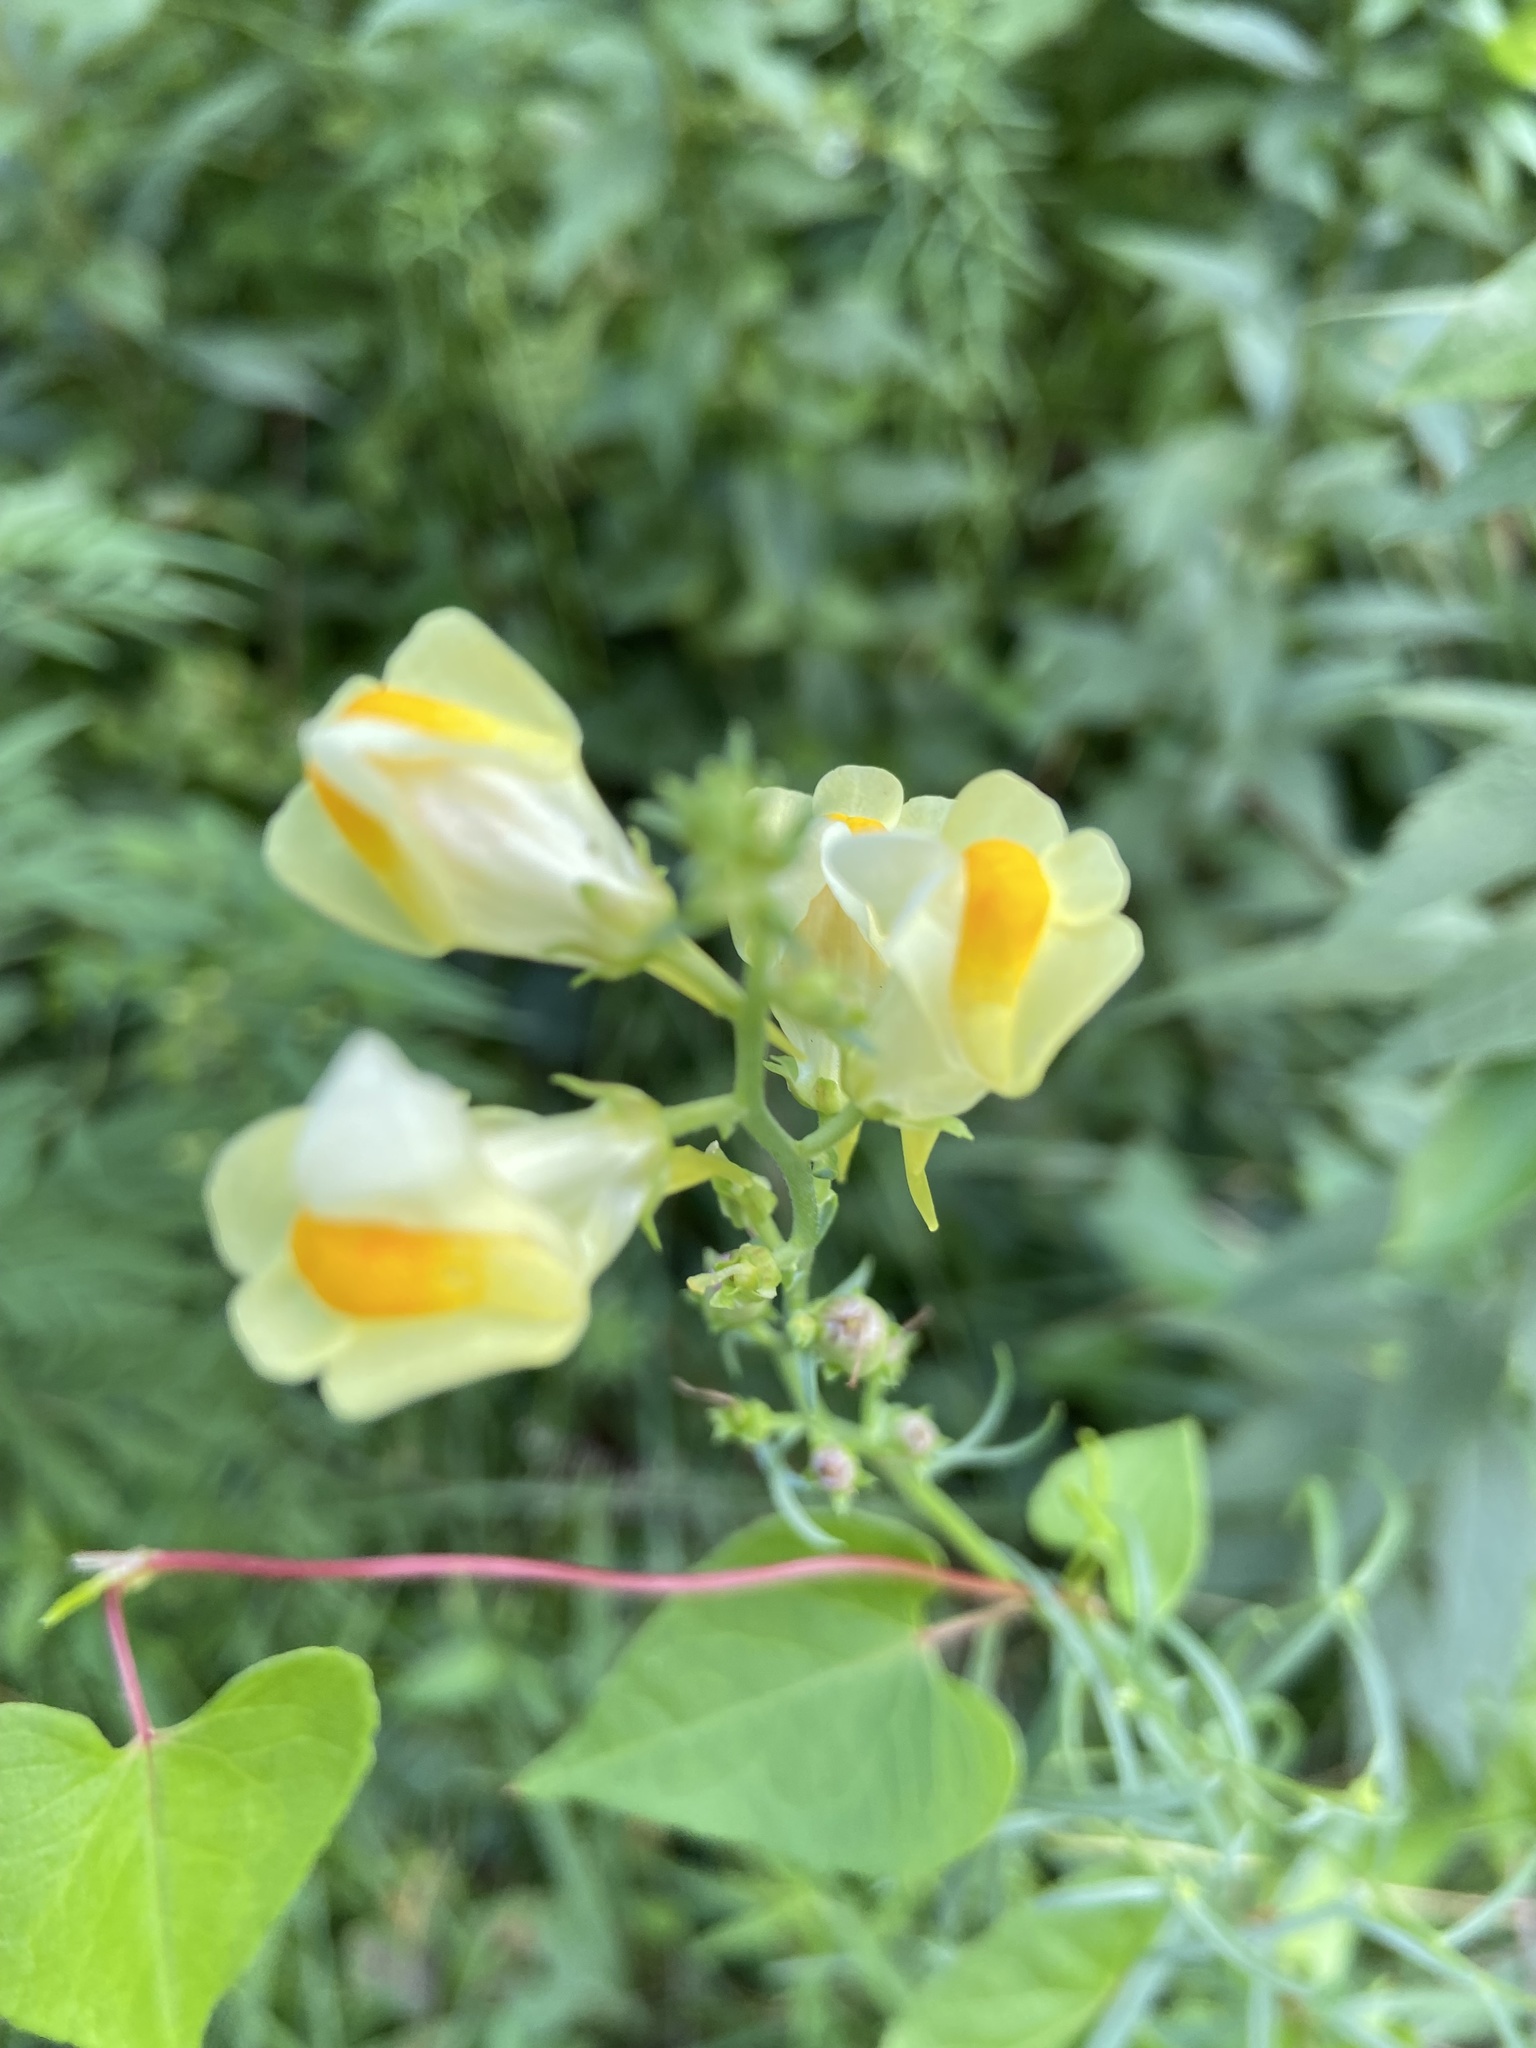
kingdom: Plantae
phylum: Tracheophyta
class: Magnoliopsida
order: Lamiales
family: Plantaginaceae
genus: Linaria
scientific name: Linaria vulgaris
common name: Butter and eggs
